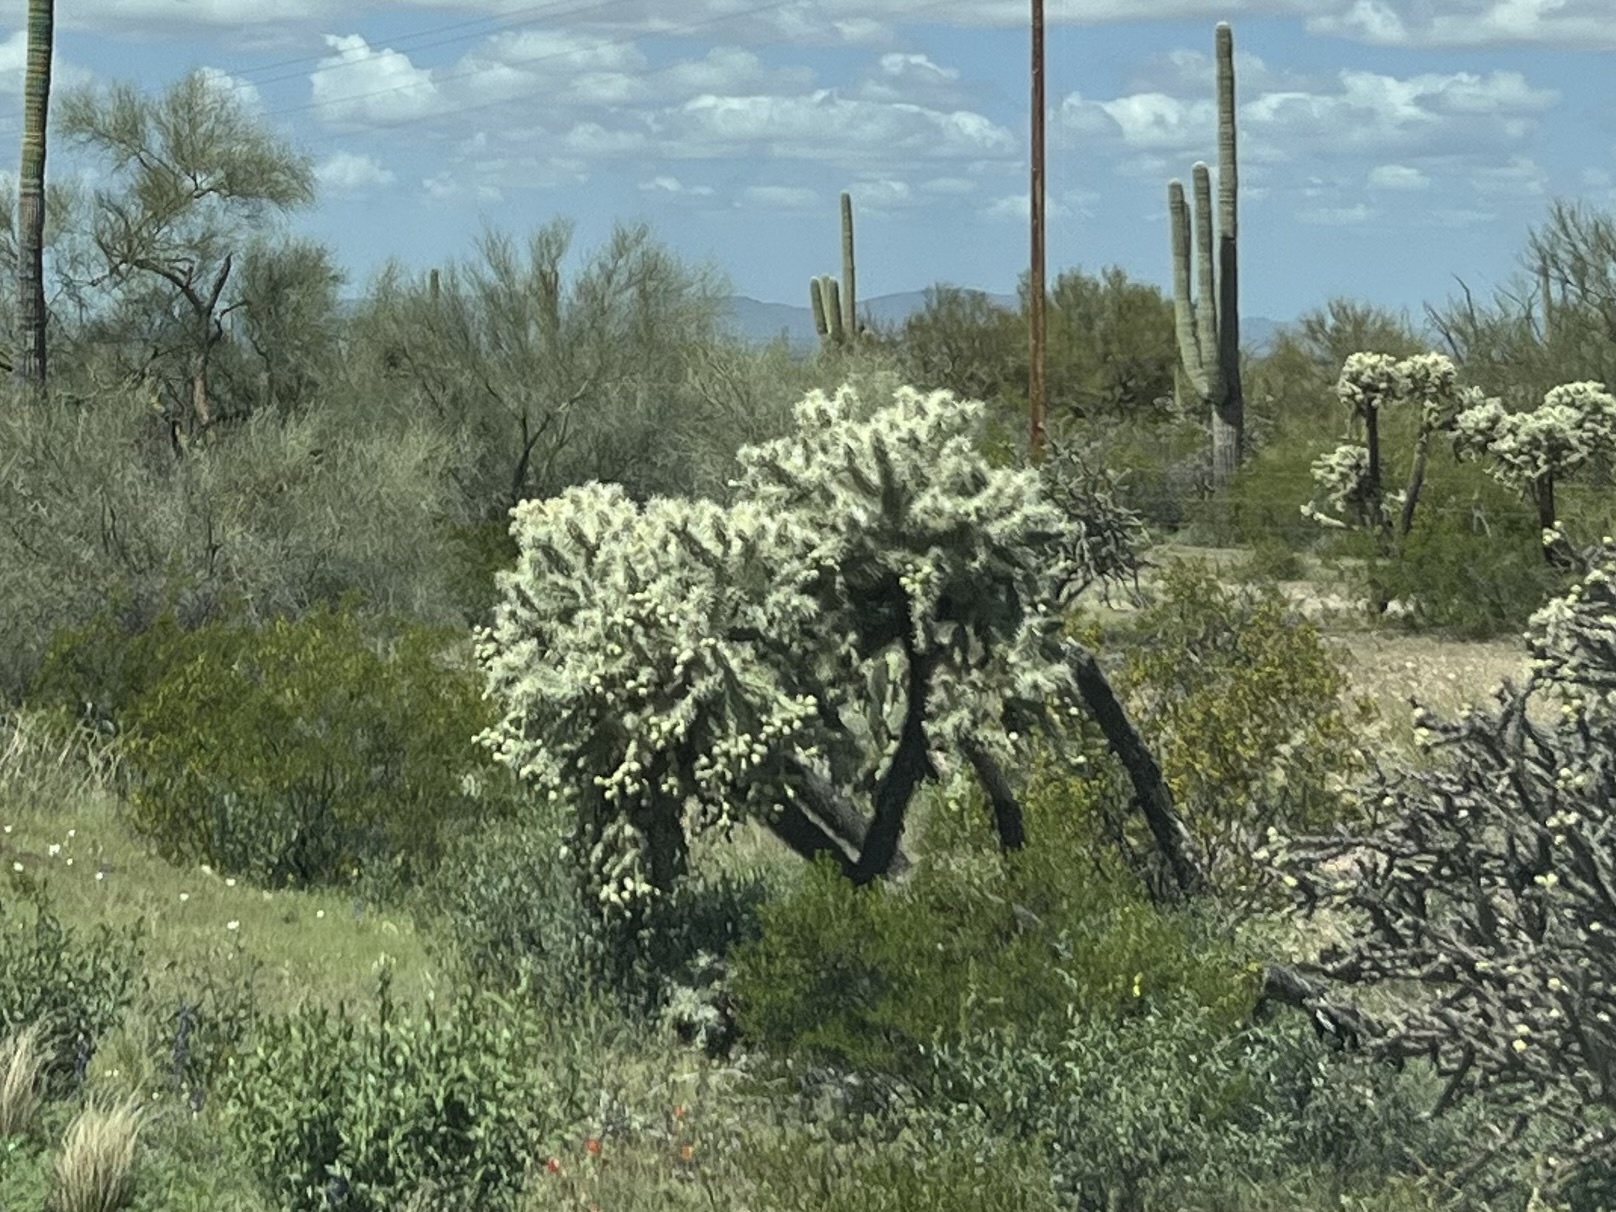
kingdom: Plantae
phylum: Tracheophyta
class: Magnoliopsida
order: Caryophyllales
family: Cactaceae
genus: Cylindropuntia
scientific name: Cylindropuntia fulgida
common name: Jumping cholla
